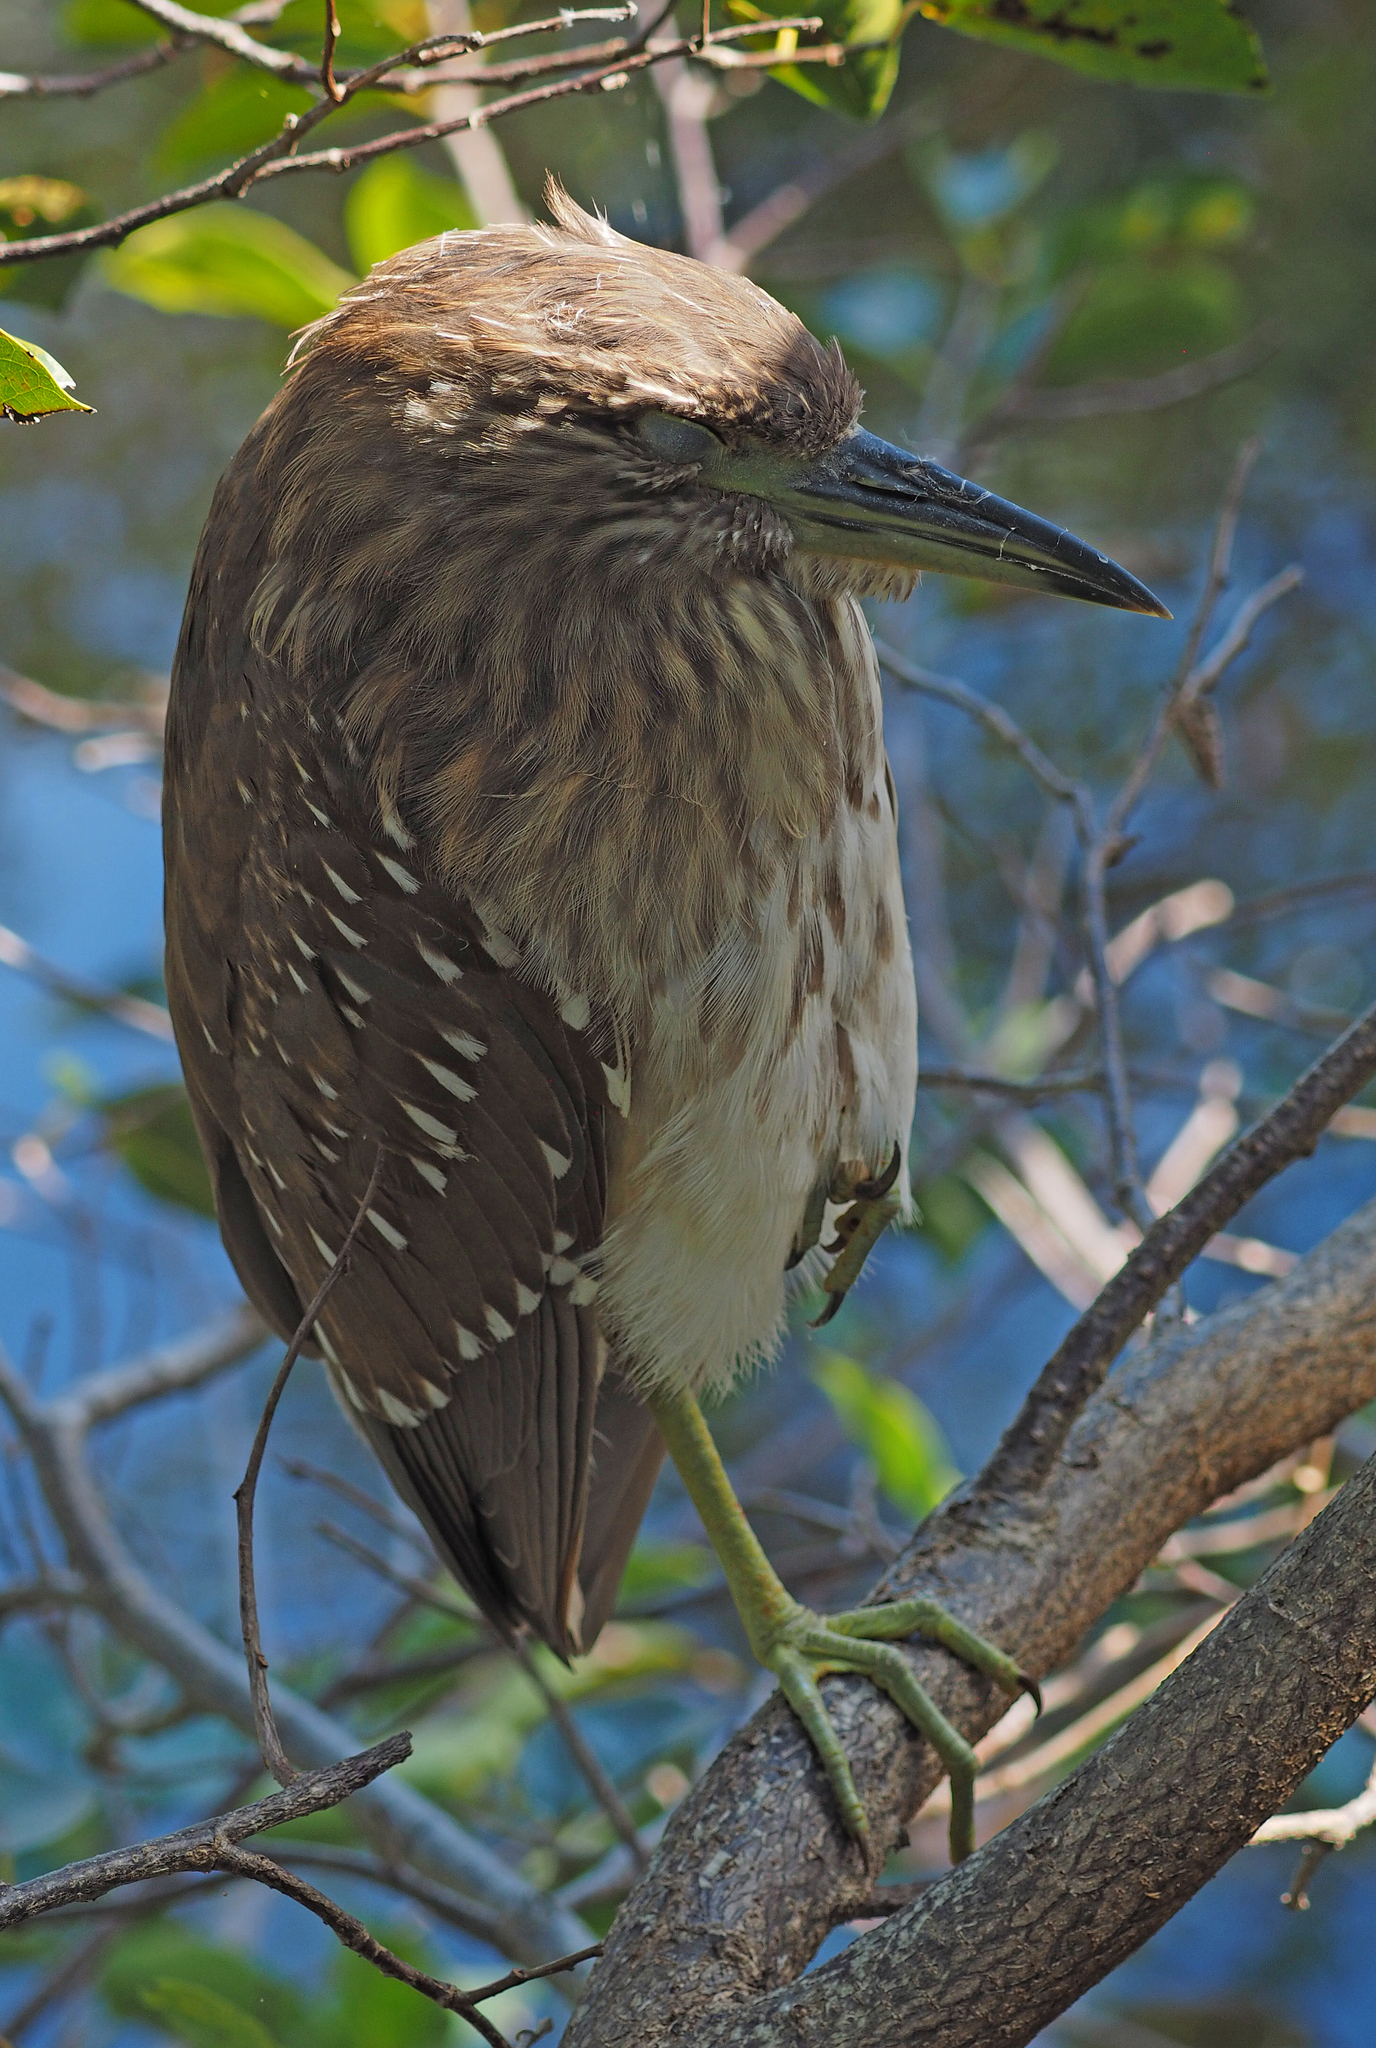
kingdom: Animalia
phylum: Chordata
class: Aves
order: Pelecaniformes
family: Ardeidae
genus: Nycticorax
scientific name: Nycticorax nycticorax
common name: Black-crowned night heron
